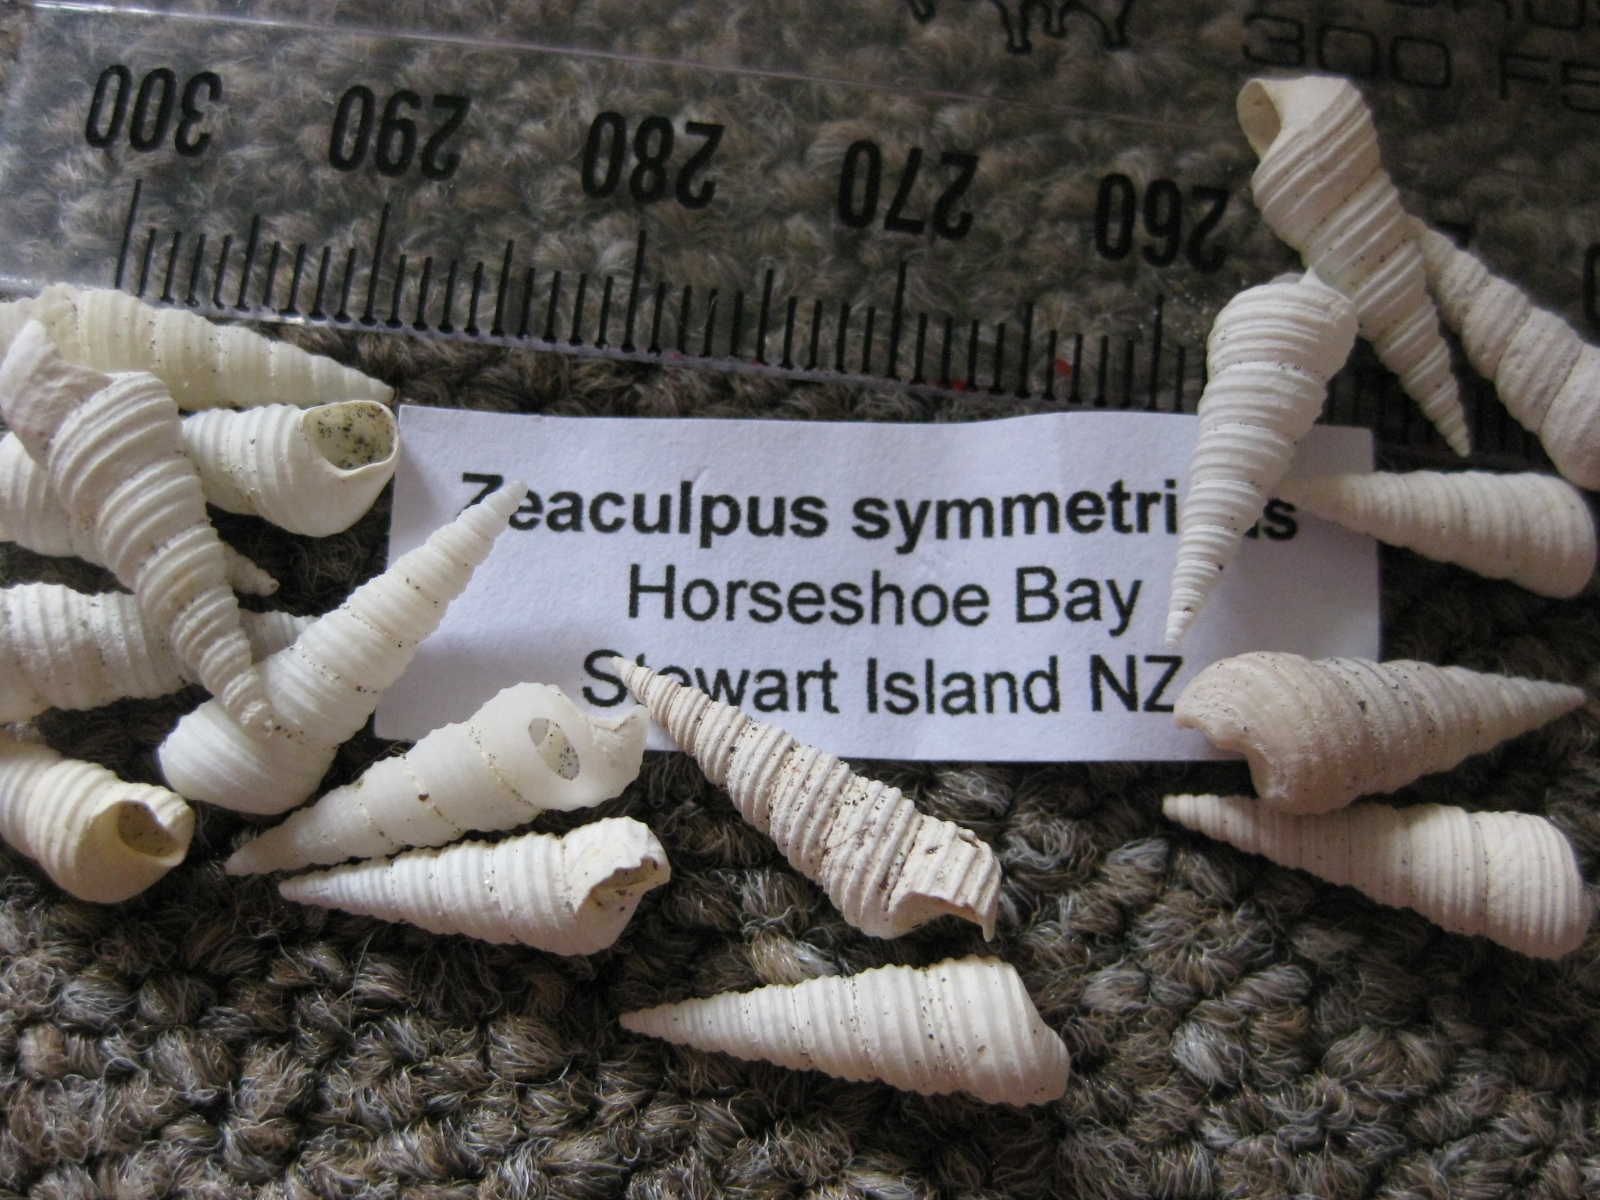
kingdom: Animalia
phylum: Mollusca
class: Gastropoda
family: Turritellidae
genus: Stiracolpus
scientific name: Stiracolpus symmetricus
